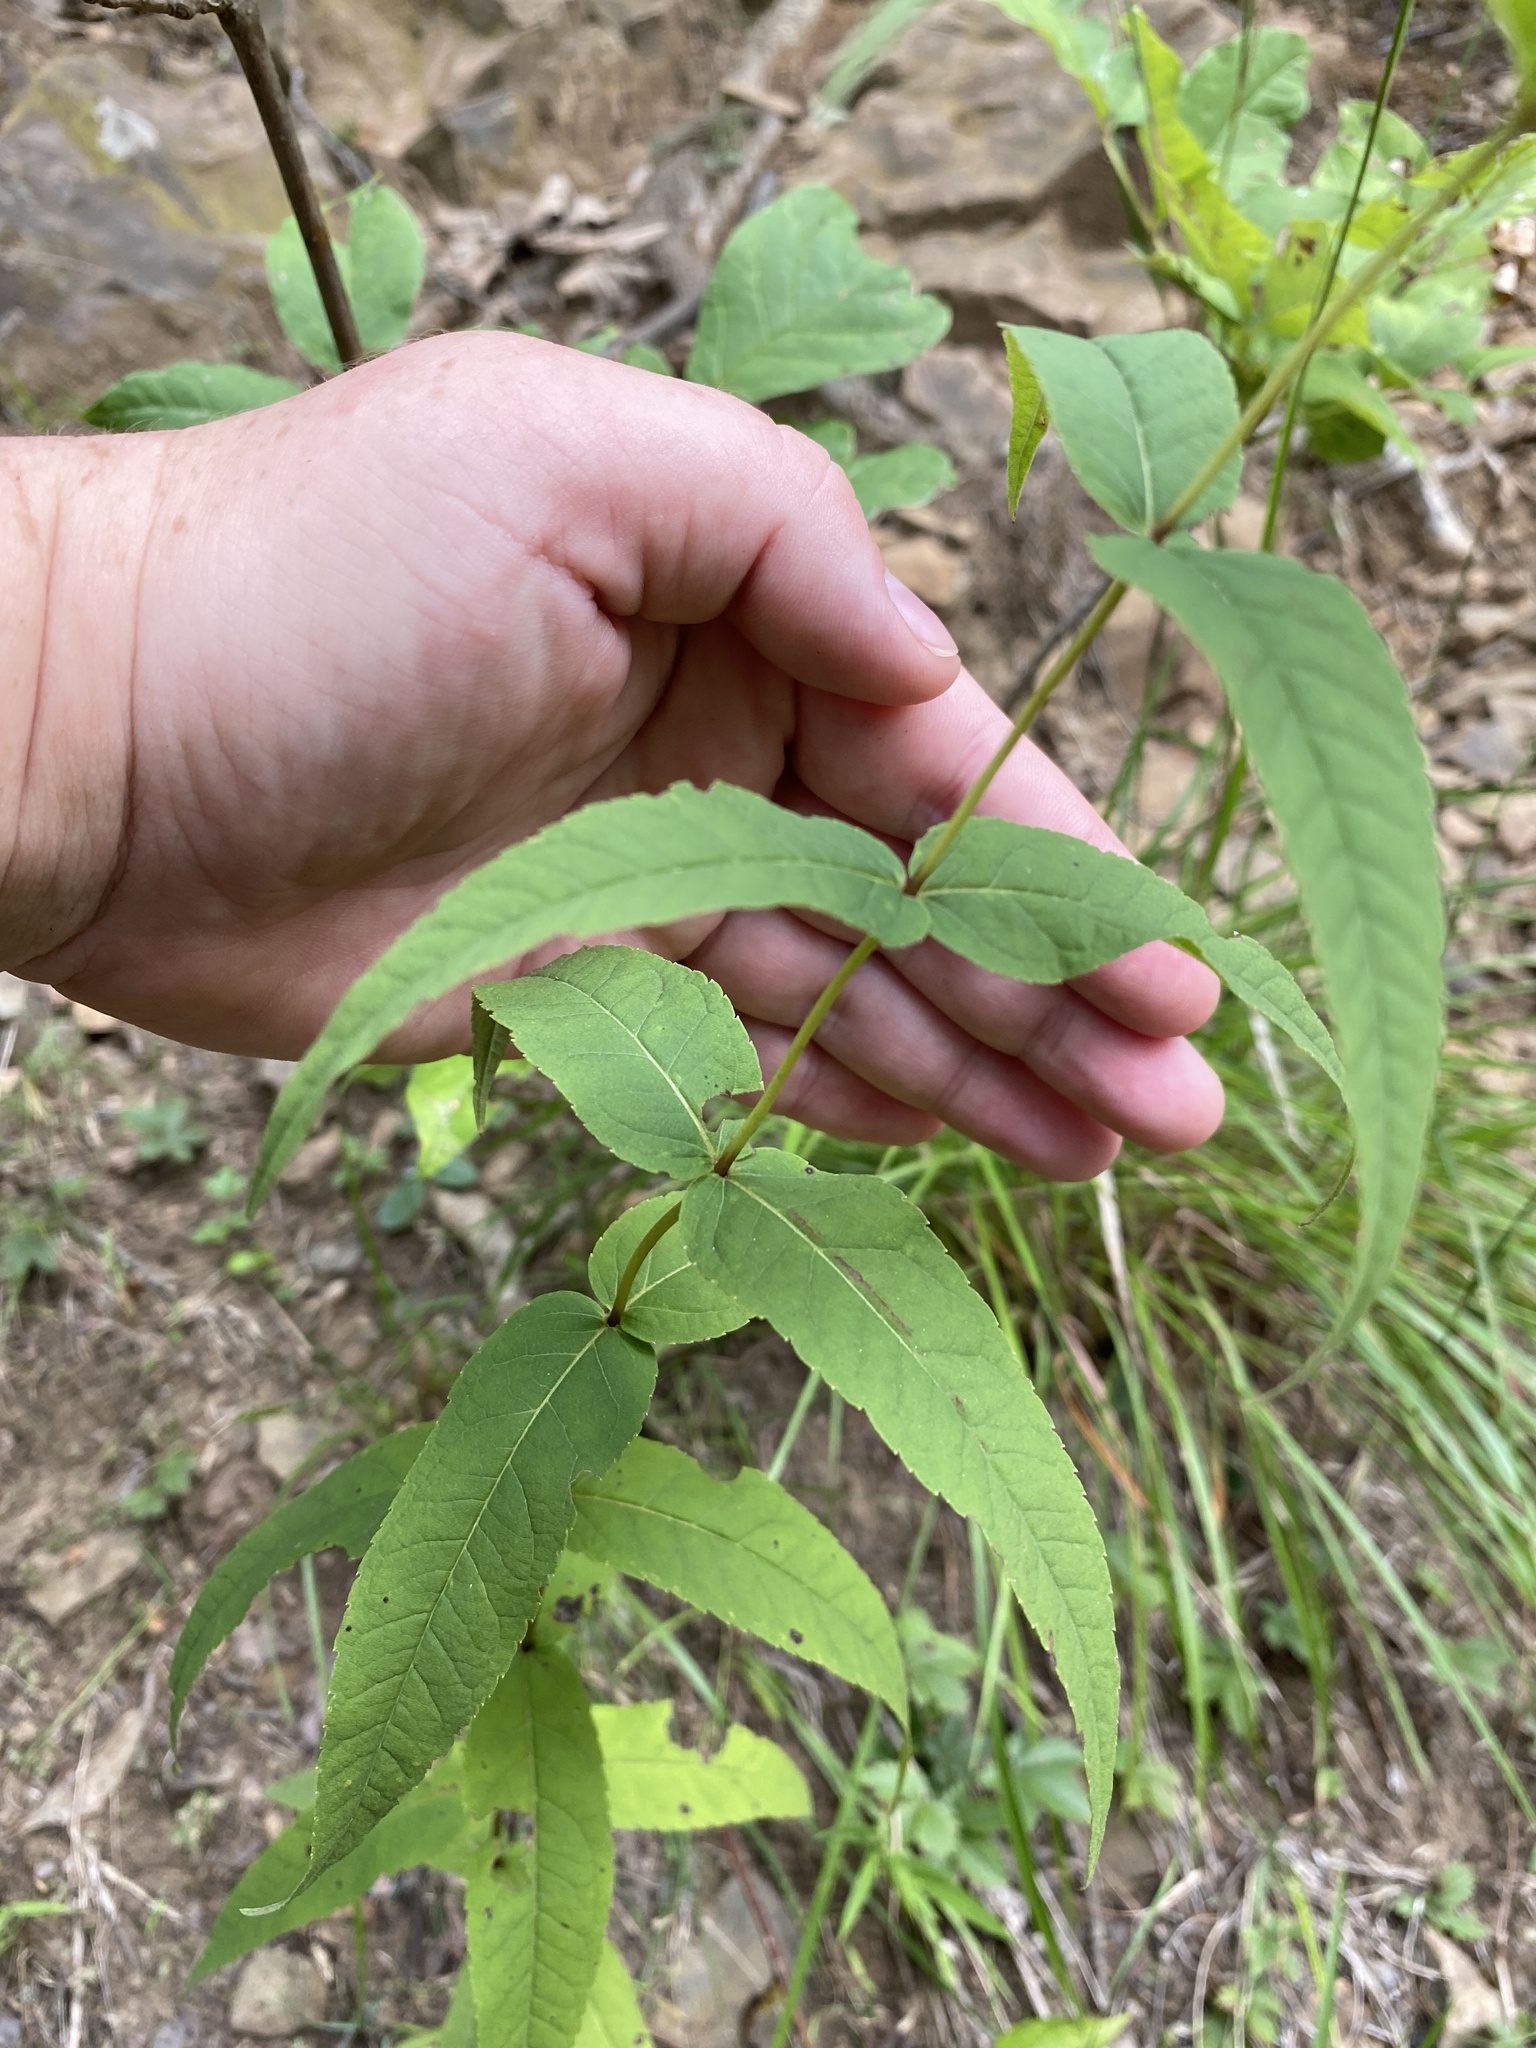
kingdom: Plantae
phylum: Tracheophyta
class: Magnoliopsida
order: Asterales
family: Asteraceae
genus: Eupatorium
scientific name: Eupatorium sessilifolium
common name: Upland boneset
